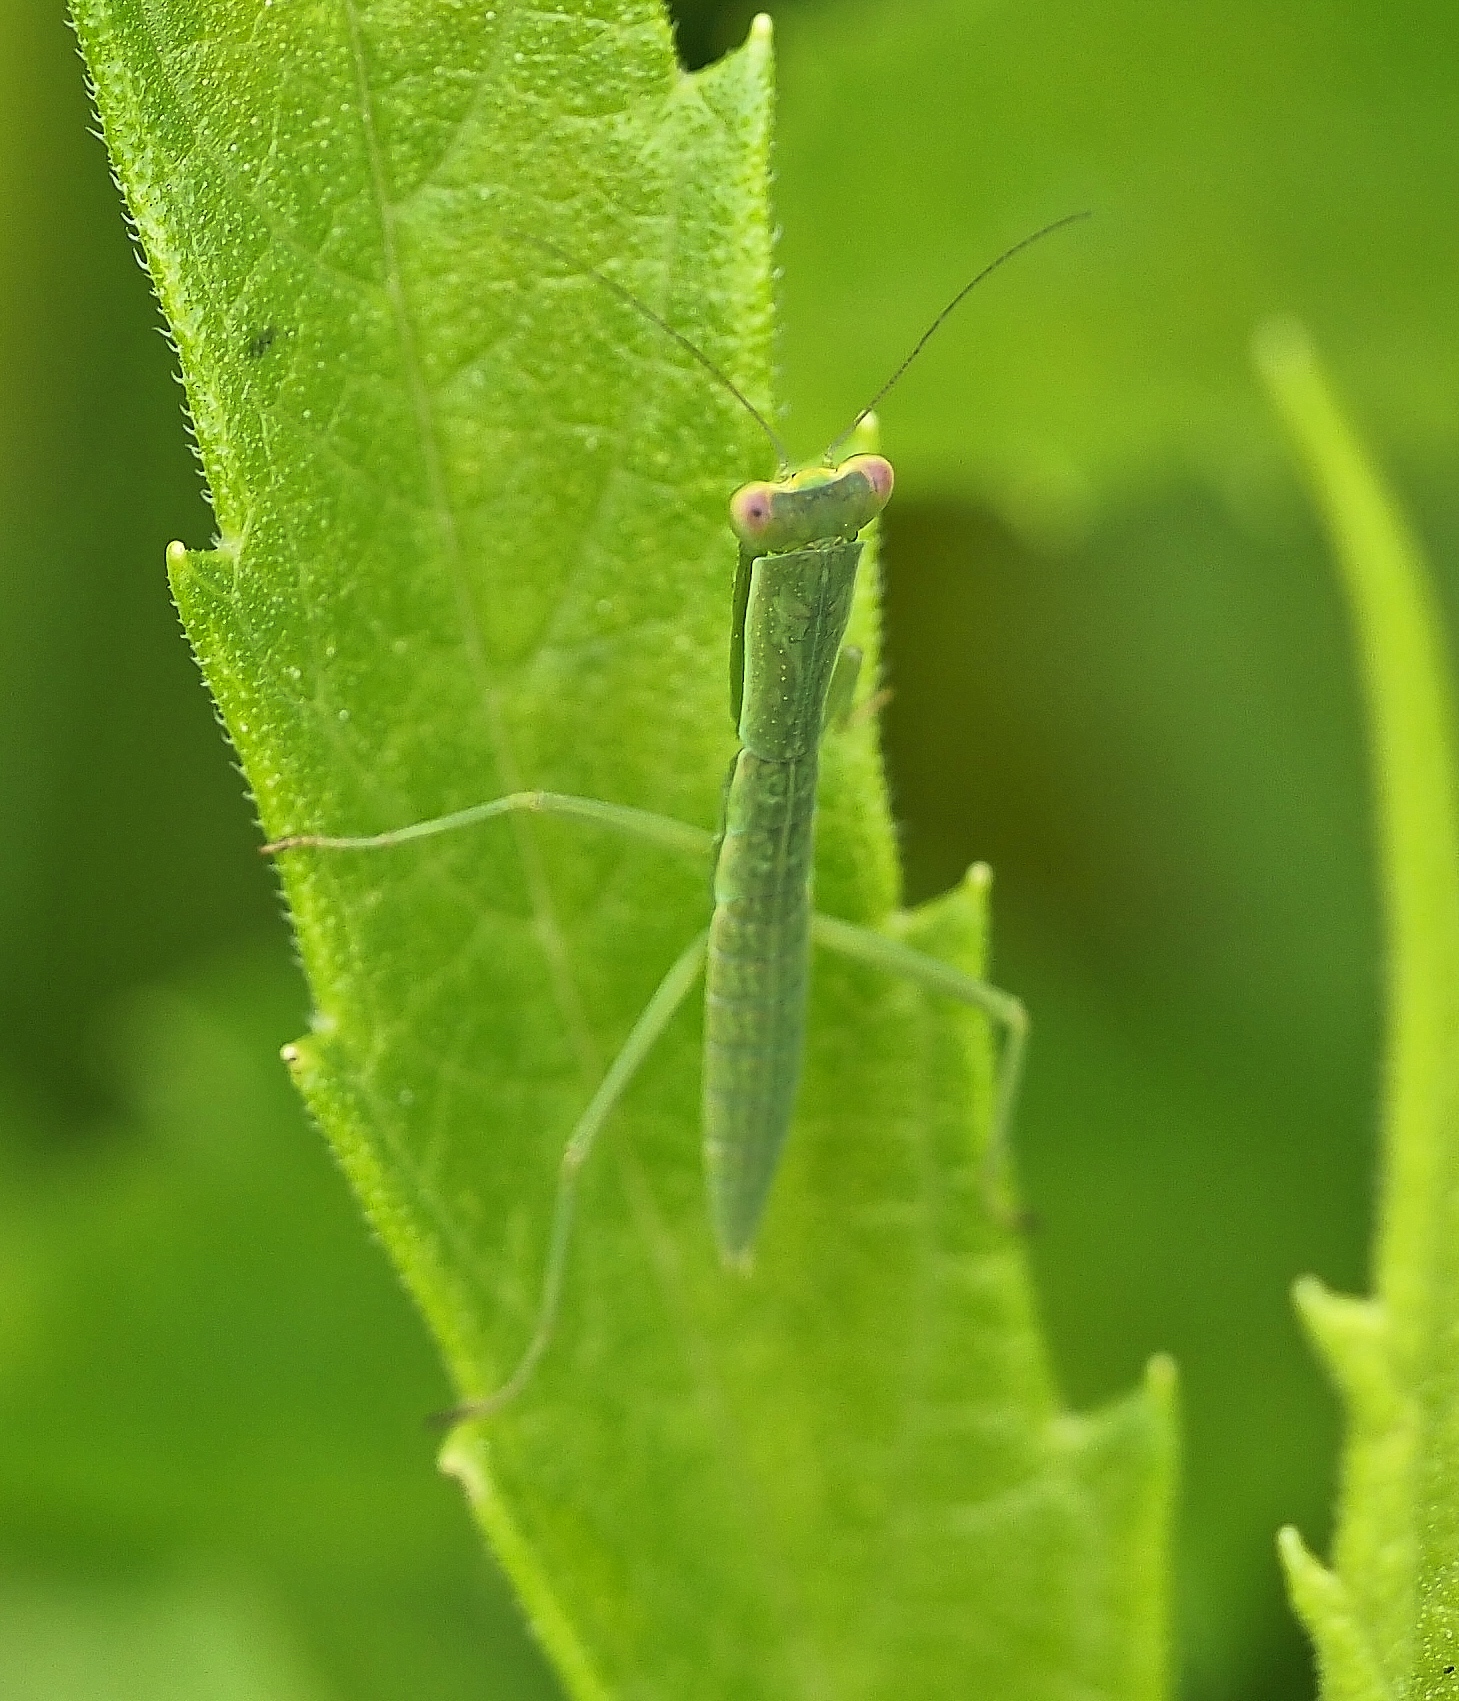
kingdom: Animalia
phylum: Arthropoda
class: Insecta
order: Mantodea
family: Mantidae
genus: Orthodera
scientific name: Orthodera ministralis
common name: Mantis
